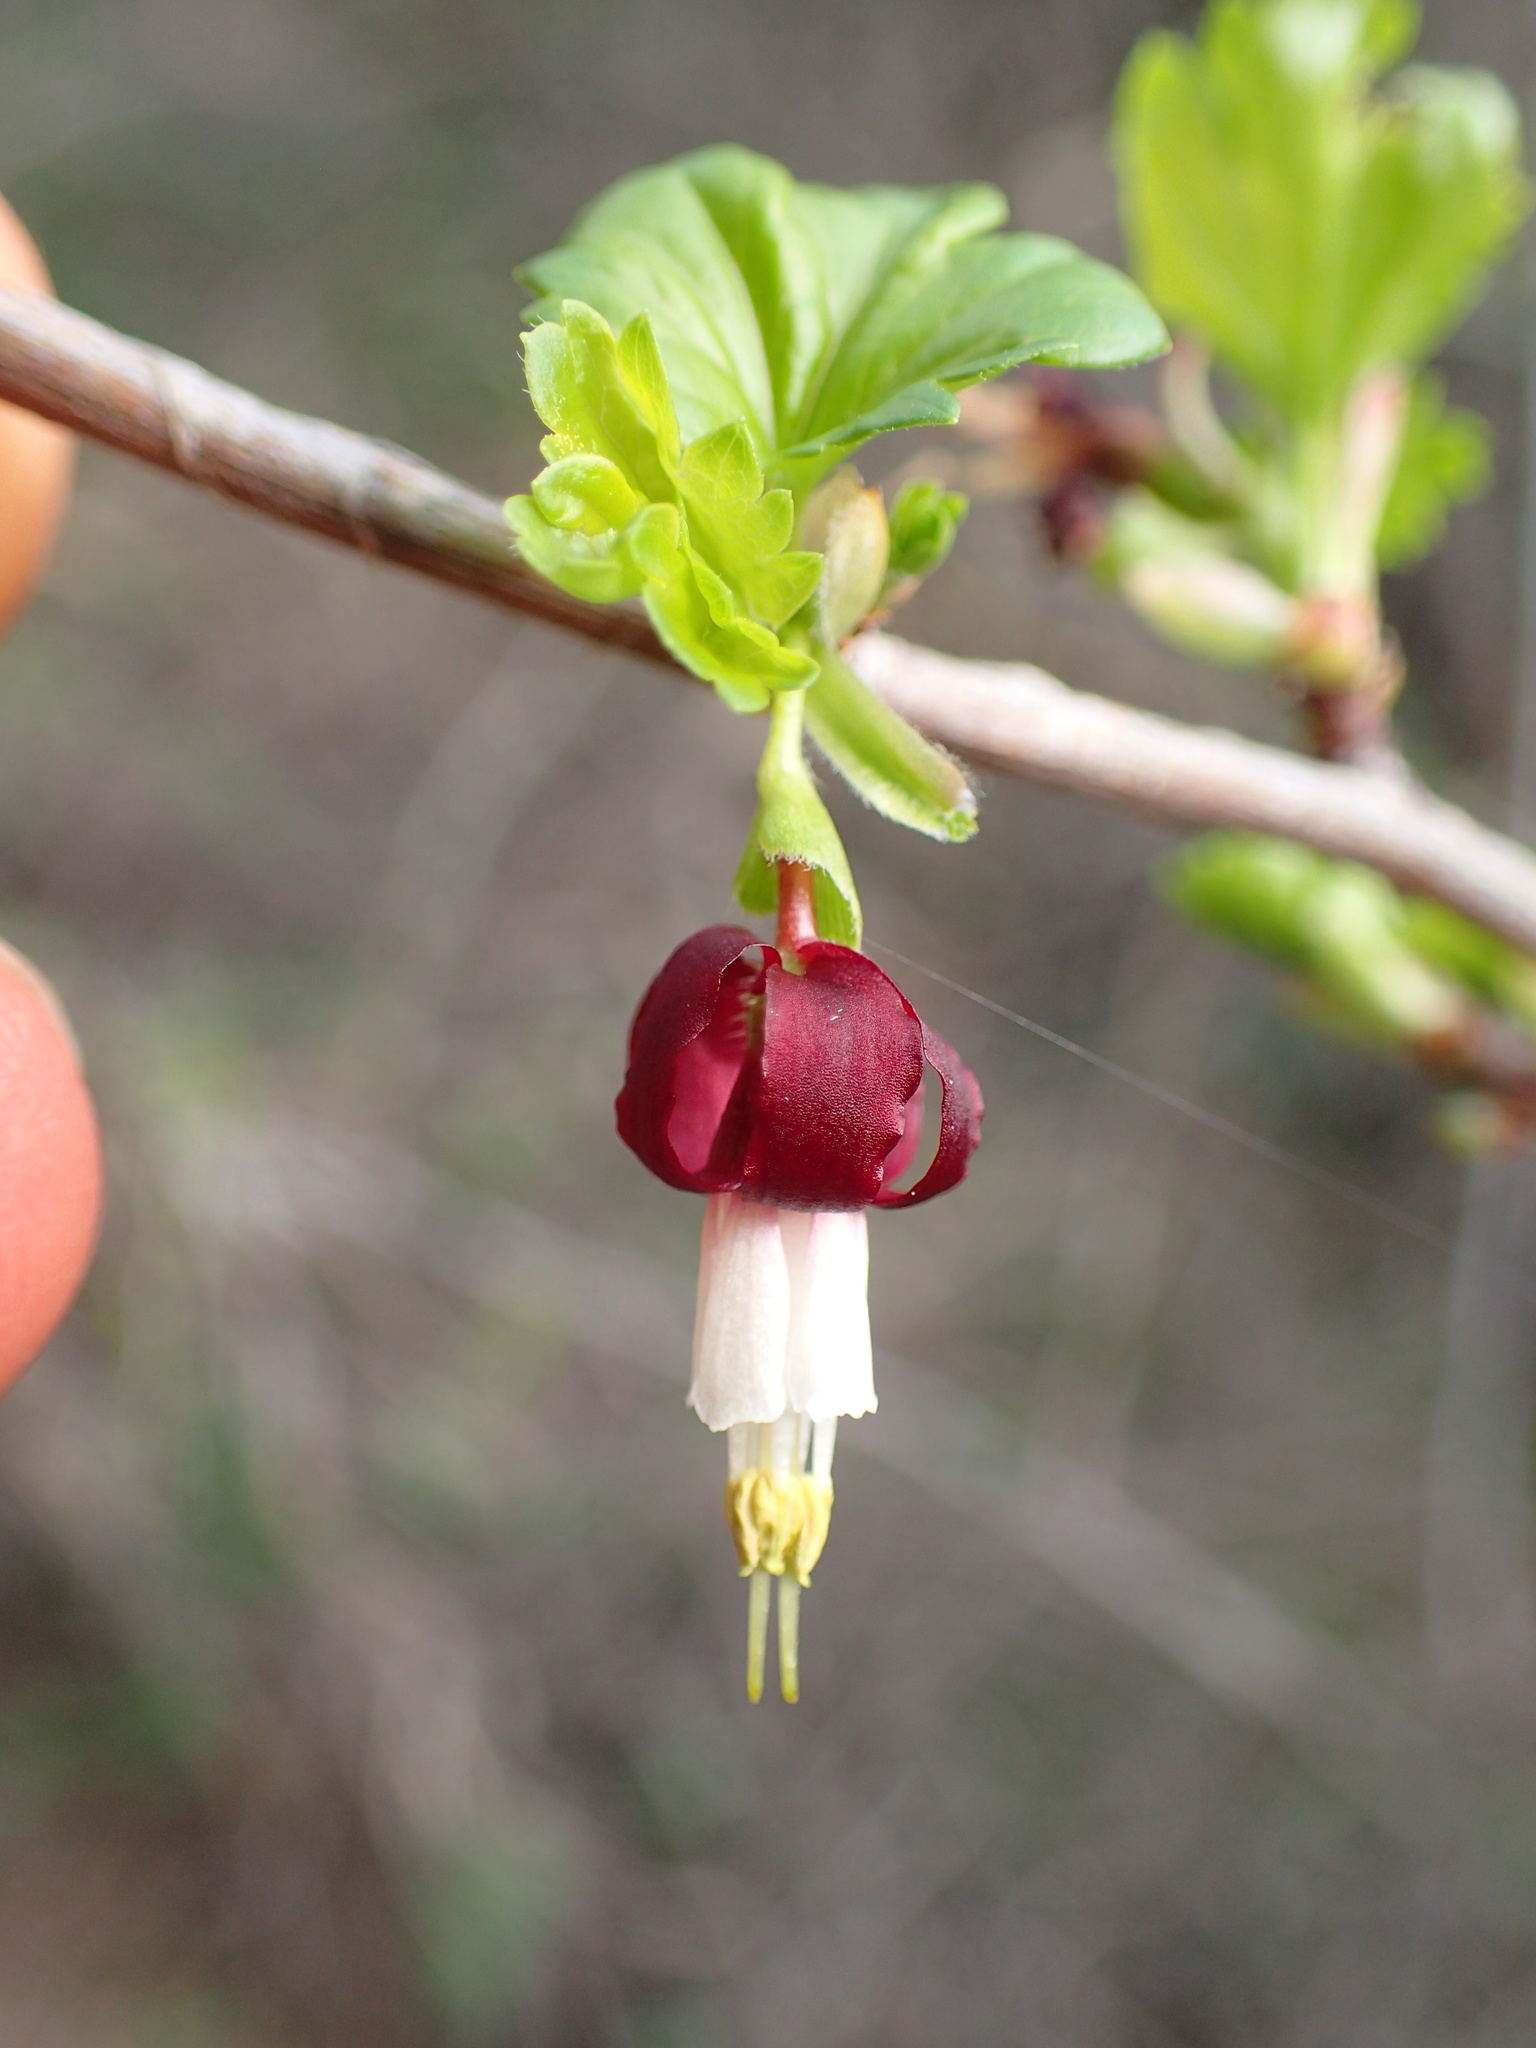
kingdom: Plantae
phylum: Tracheophyta
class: Magnoliopsida
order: Saxifragales
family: Grossulariaceae
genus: Ribes
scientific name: Ribes californicum
